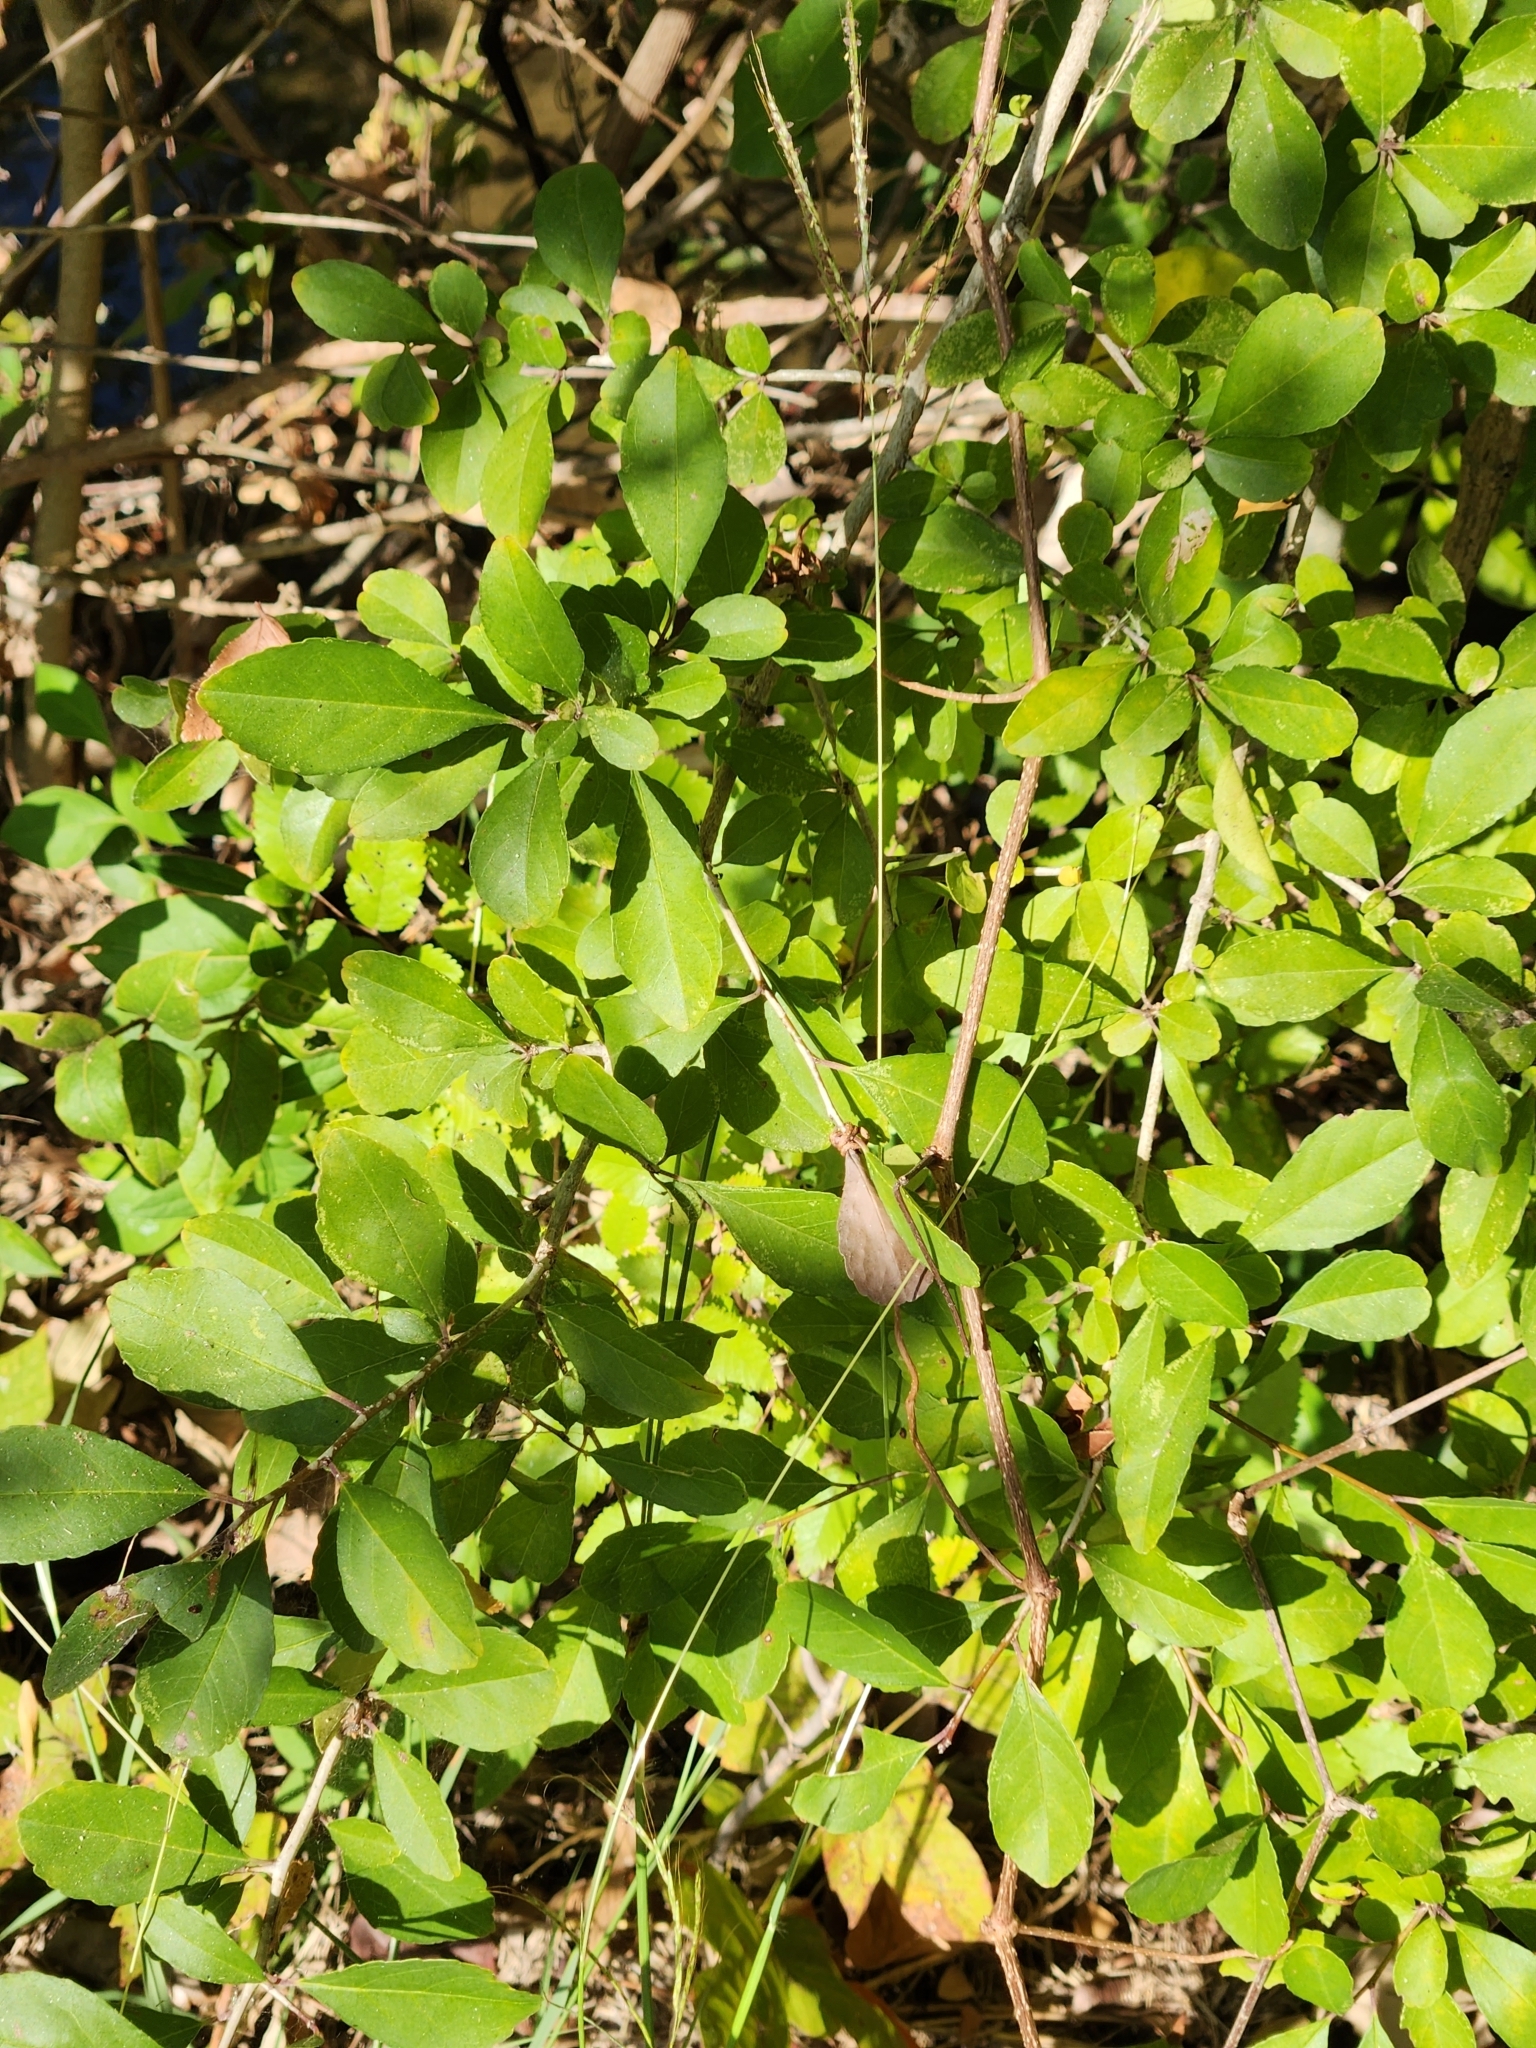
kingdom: Plantae
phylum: Tracheophyta
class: Magnoliopsida
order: Aquifoliales
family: Aquifoliaceae
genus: Ilex
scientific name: Ilex decidua
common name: Possum-haw
